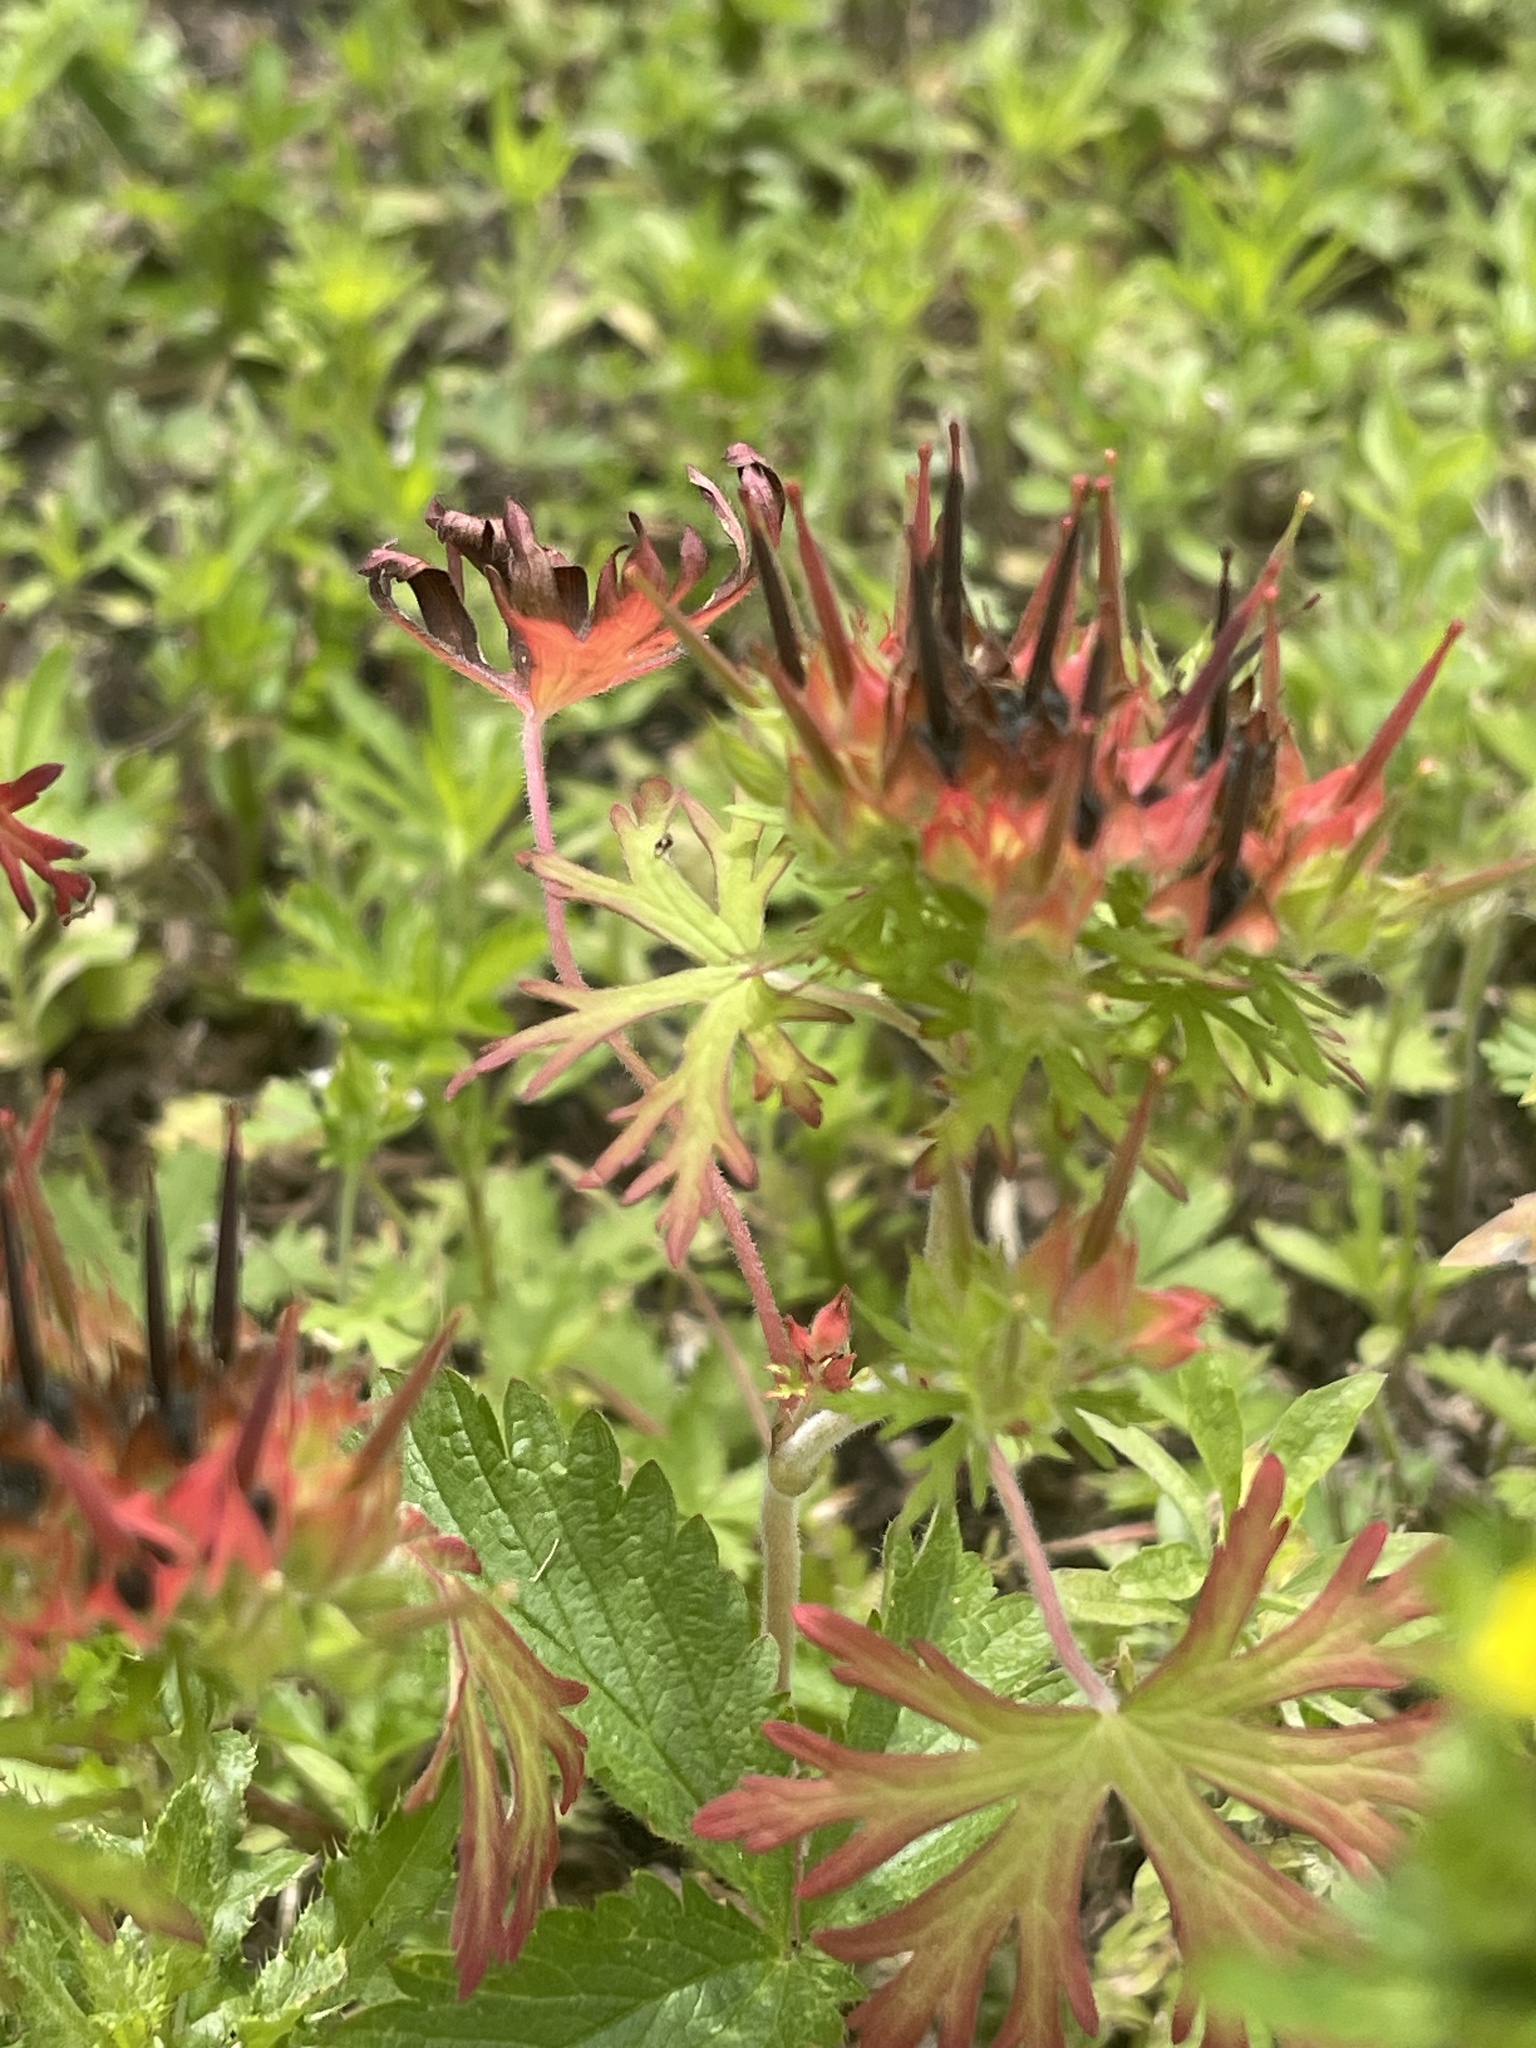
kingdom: Plantae
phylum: Tracheophyta
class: Magnoliopsida
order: Geraniales
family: Geraniaceae
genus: Geranium
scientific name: Geranium carolinianum
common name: Carolina crane's-bill
